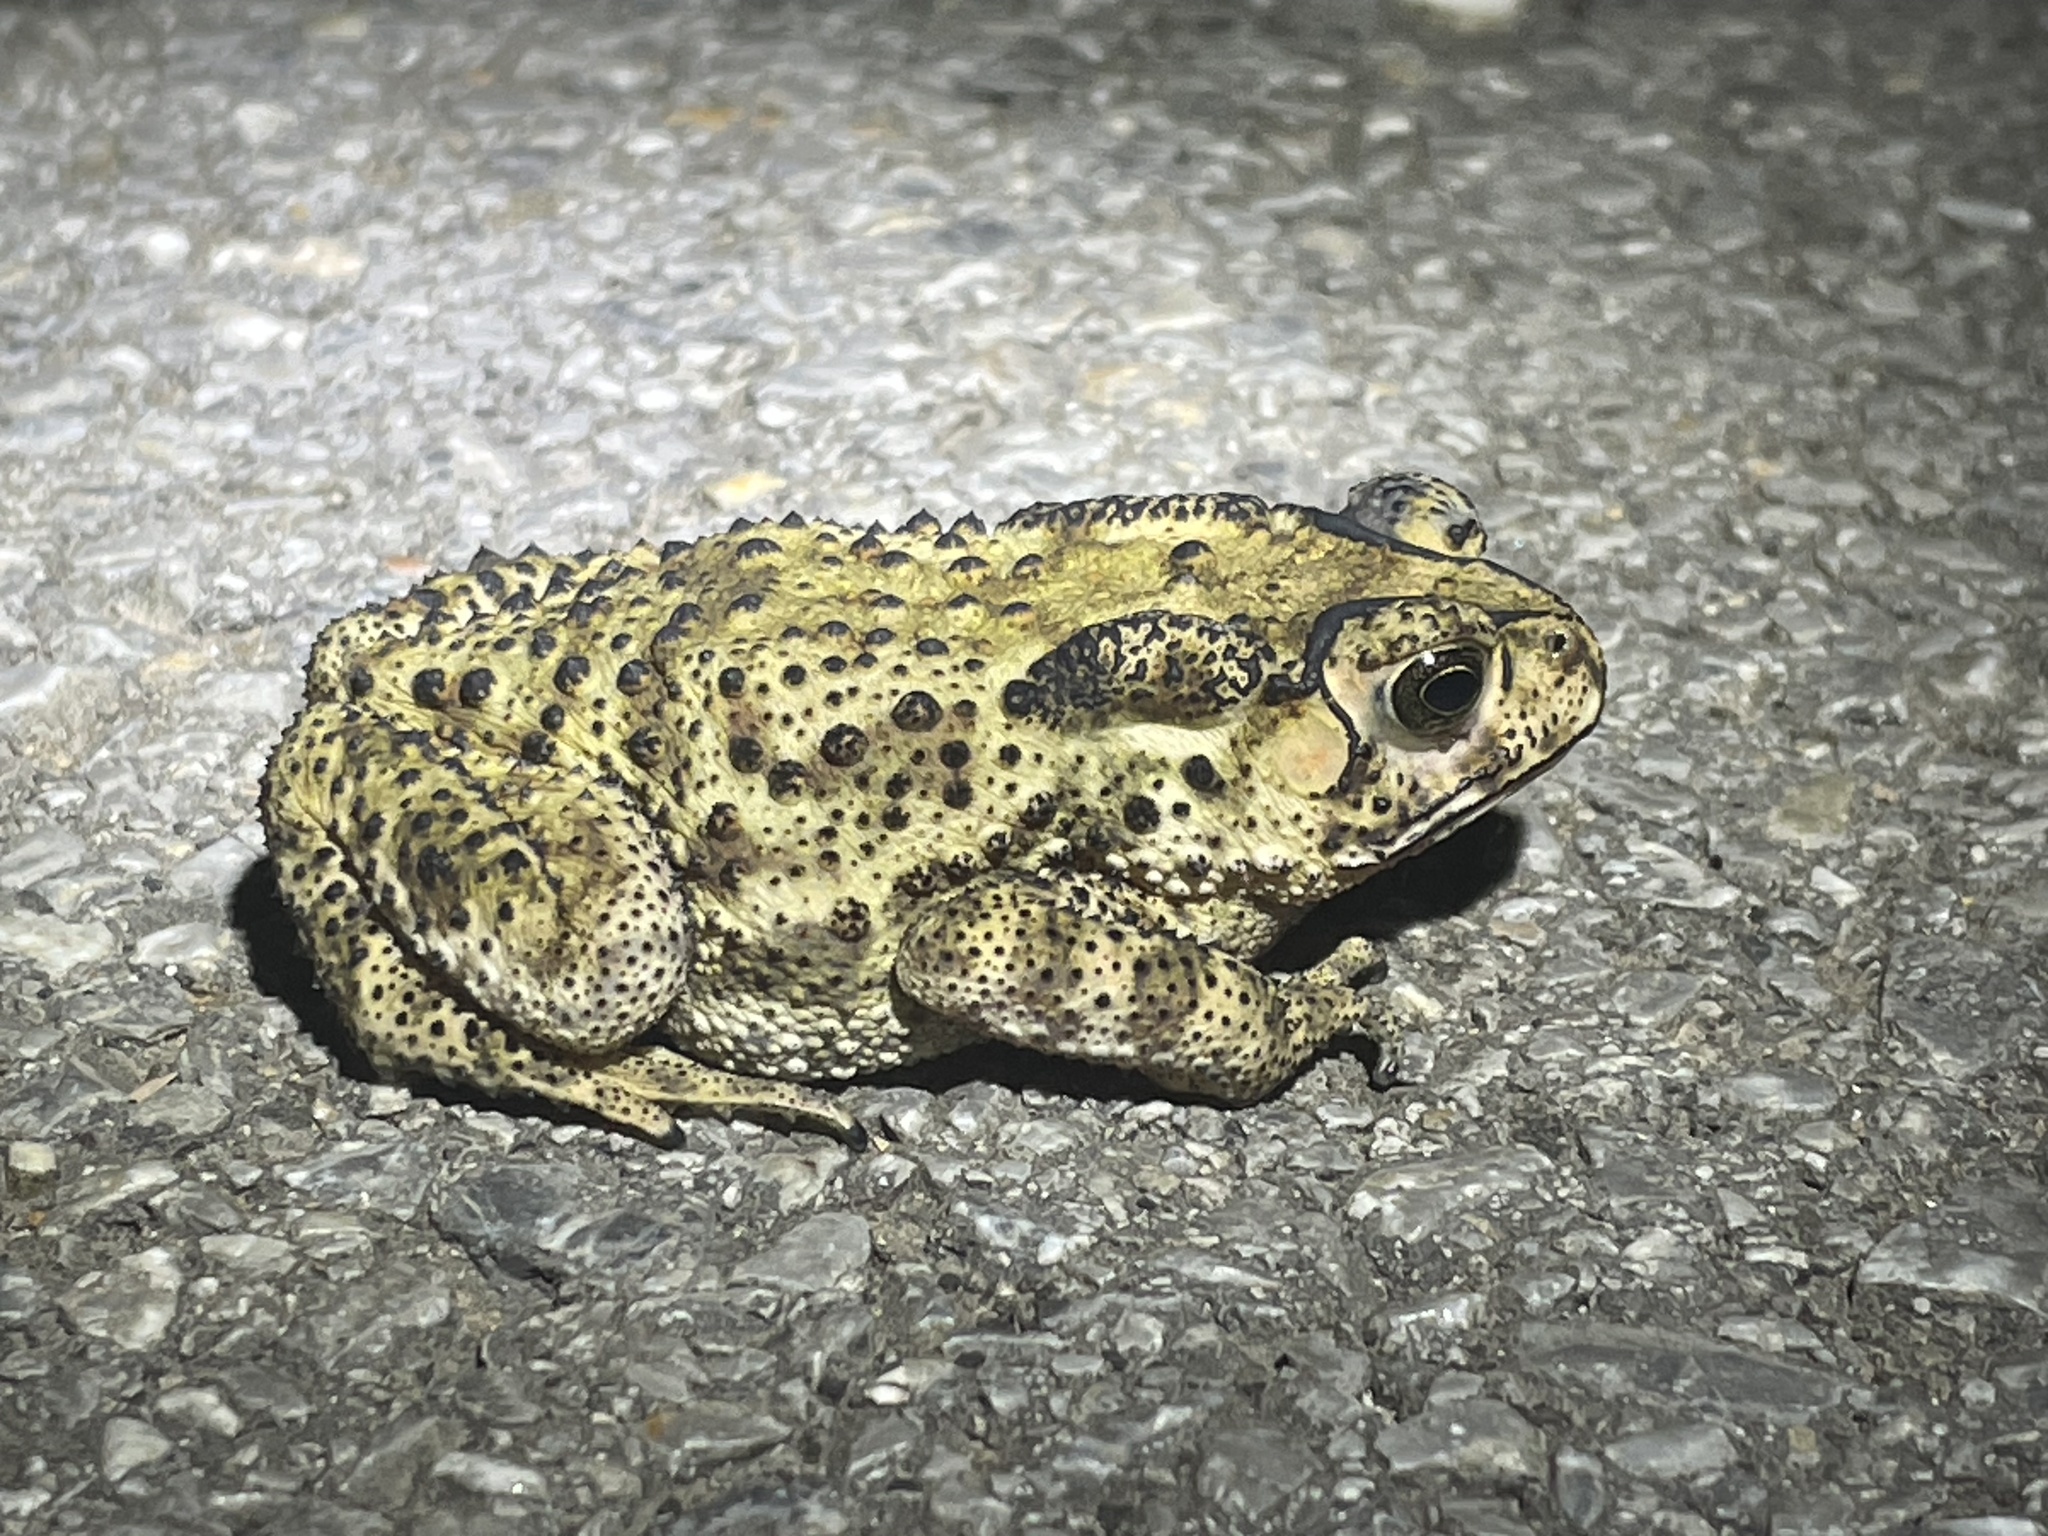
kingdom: Animalia
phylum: Chordata
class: Amphibia
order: Anura
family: Bufonidae
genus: Duttaphrynus
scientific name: Duttaphrynus melanostictus
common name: Common sunda toad
